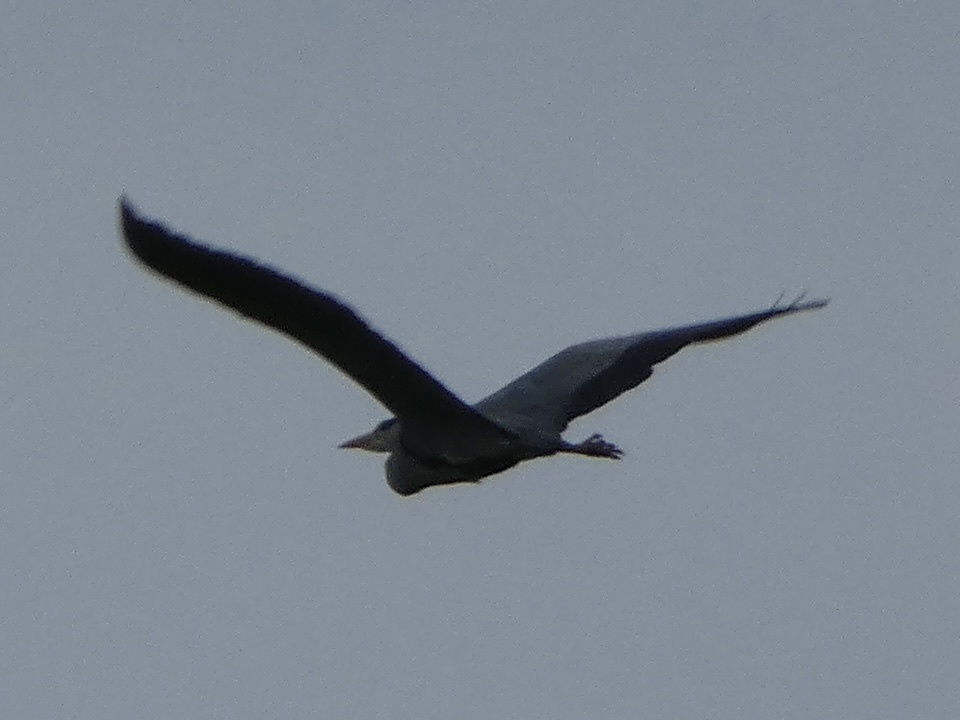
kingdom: Animalia
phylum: Chordata
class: Aves
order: Pelecaniformes
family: Ardeidae
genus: Ardea
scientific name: Ardea cinerea
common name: Grey heron
